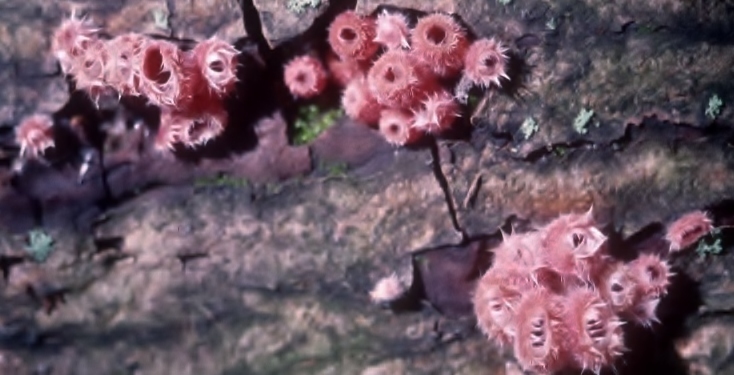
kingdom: Fungi
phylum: Ascomycota
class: Pezizomycetes
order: Pezizales
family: Sarcoscyphaceae
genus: Microstoma
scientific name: Microstoma floccosum
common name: Pink fringed faery cup
